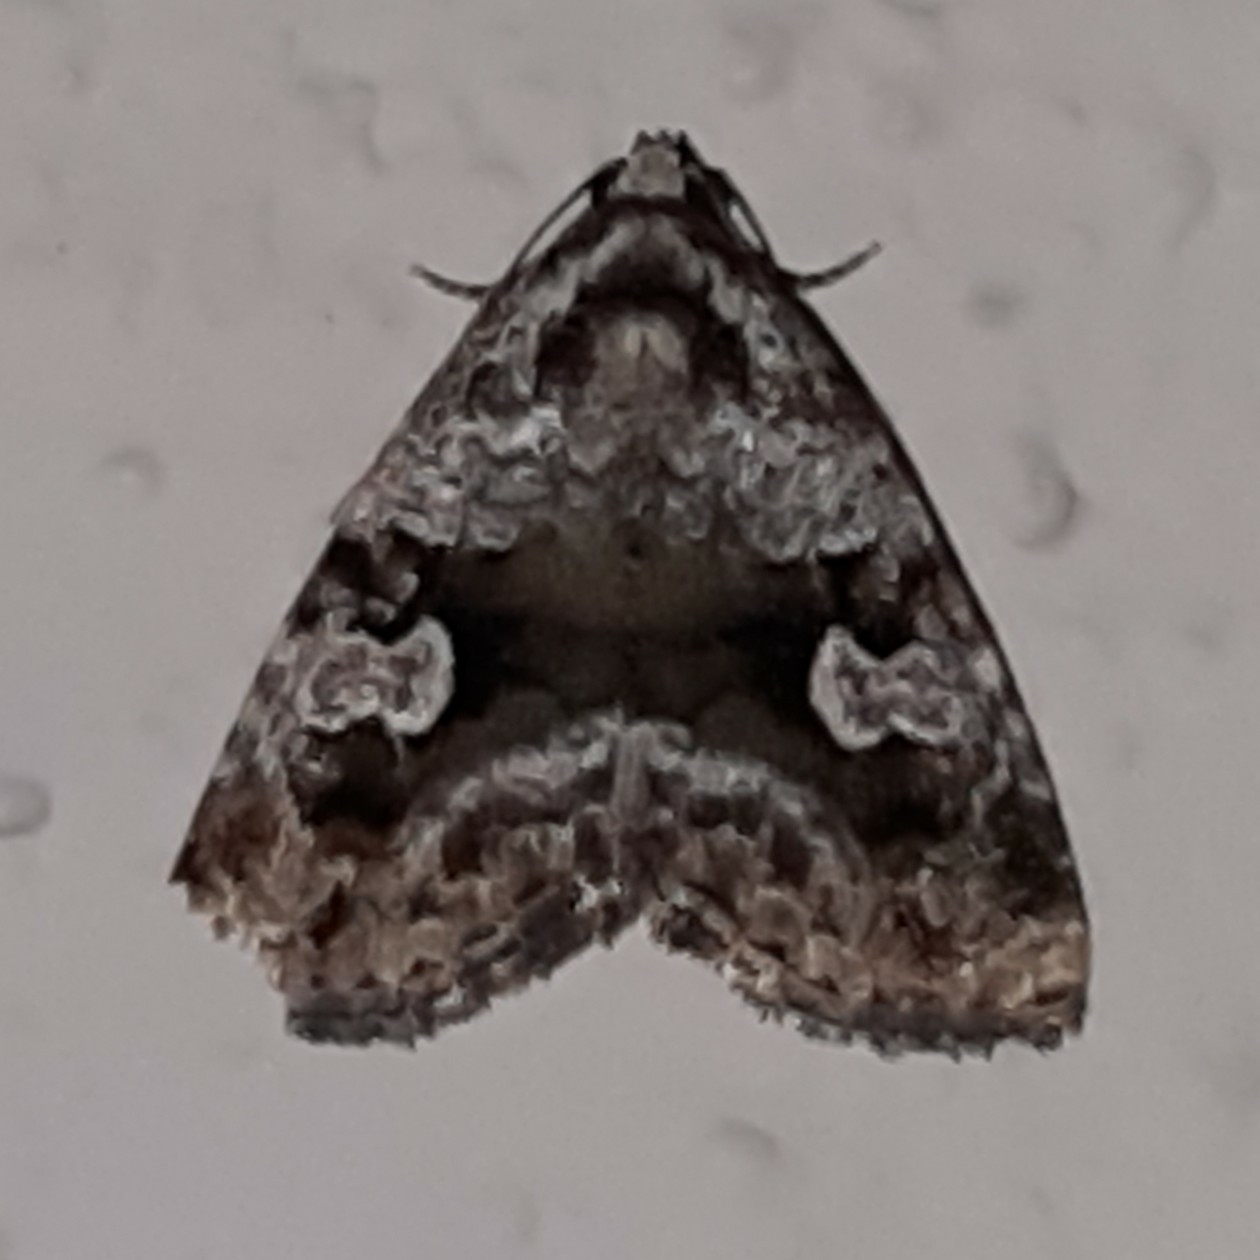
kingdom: Animalia
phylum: Arthropoda
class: Insecta
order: Lepidoptera
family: Noctuidae
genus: Mictochroa
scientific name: Mictochroa zonella
